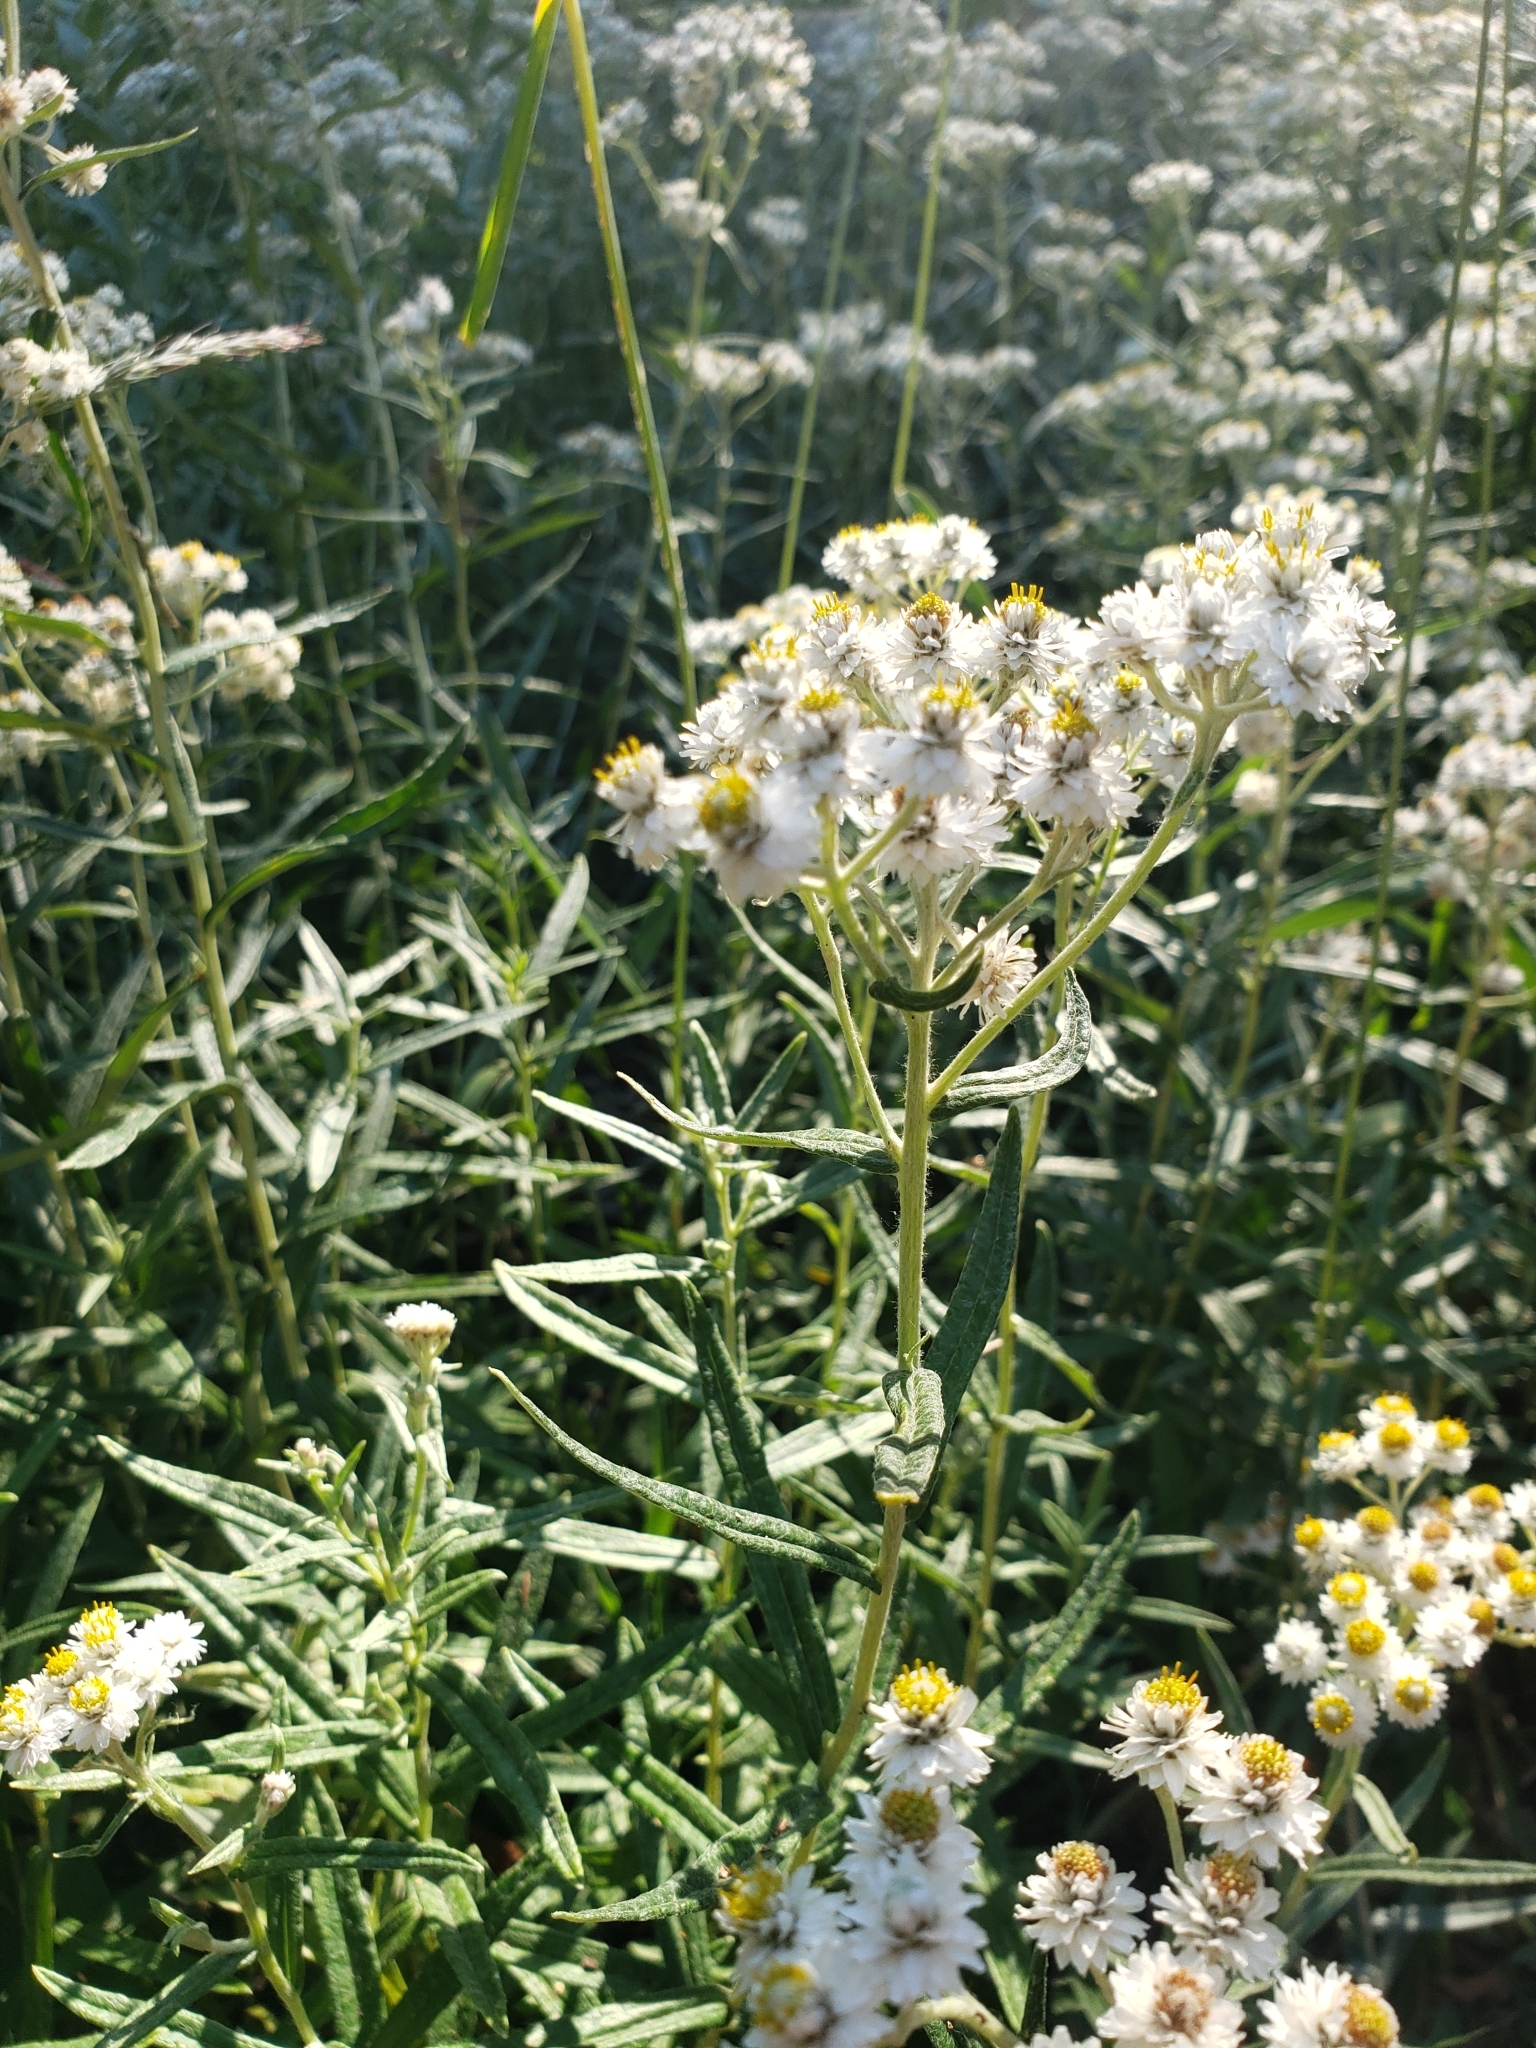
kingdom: Plantae
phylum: Tracheophyta
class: Magnoliopsida
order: Asterales
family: Asteraceae
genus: Anaphalis
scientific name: Anaphalis margaritacea
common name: Pearly everlasting
